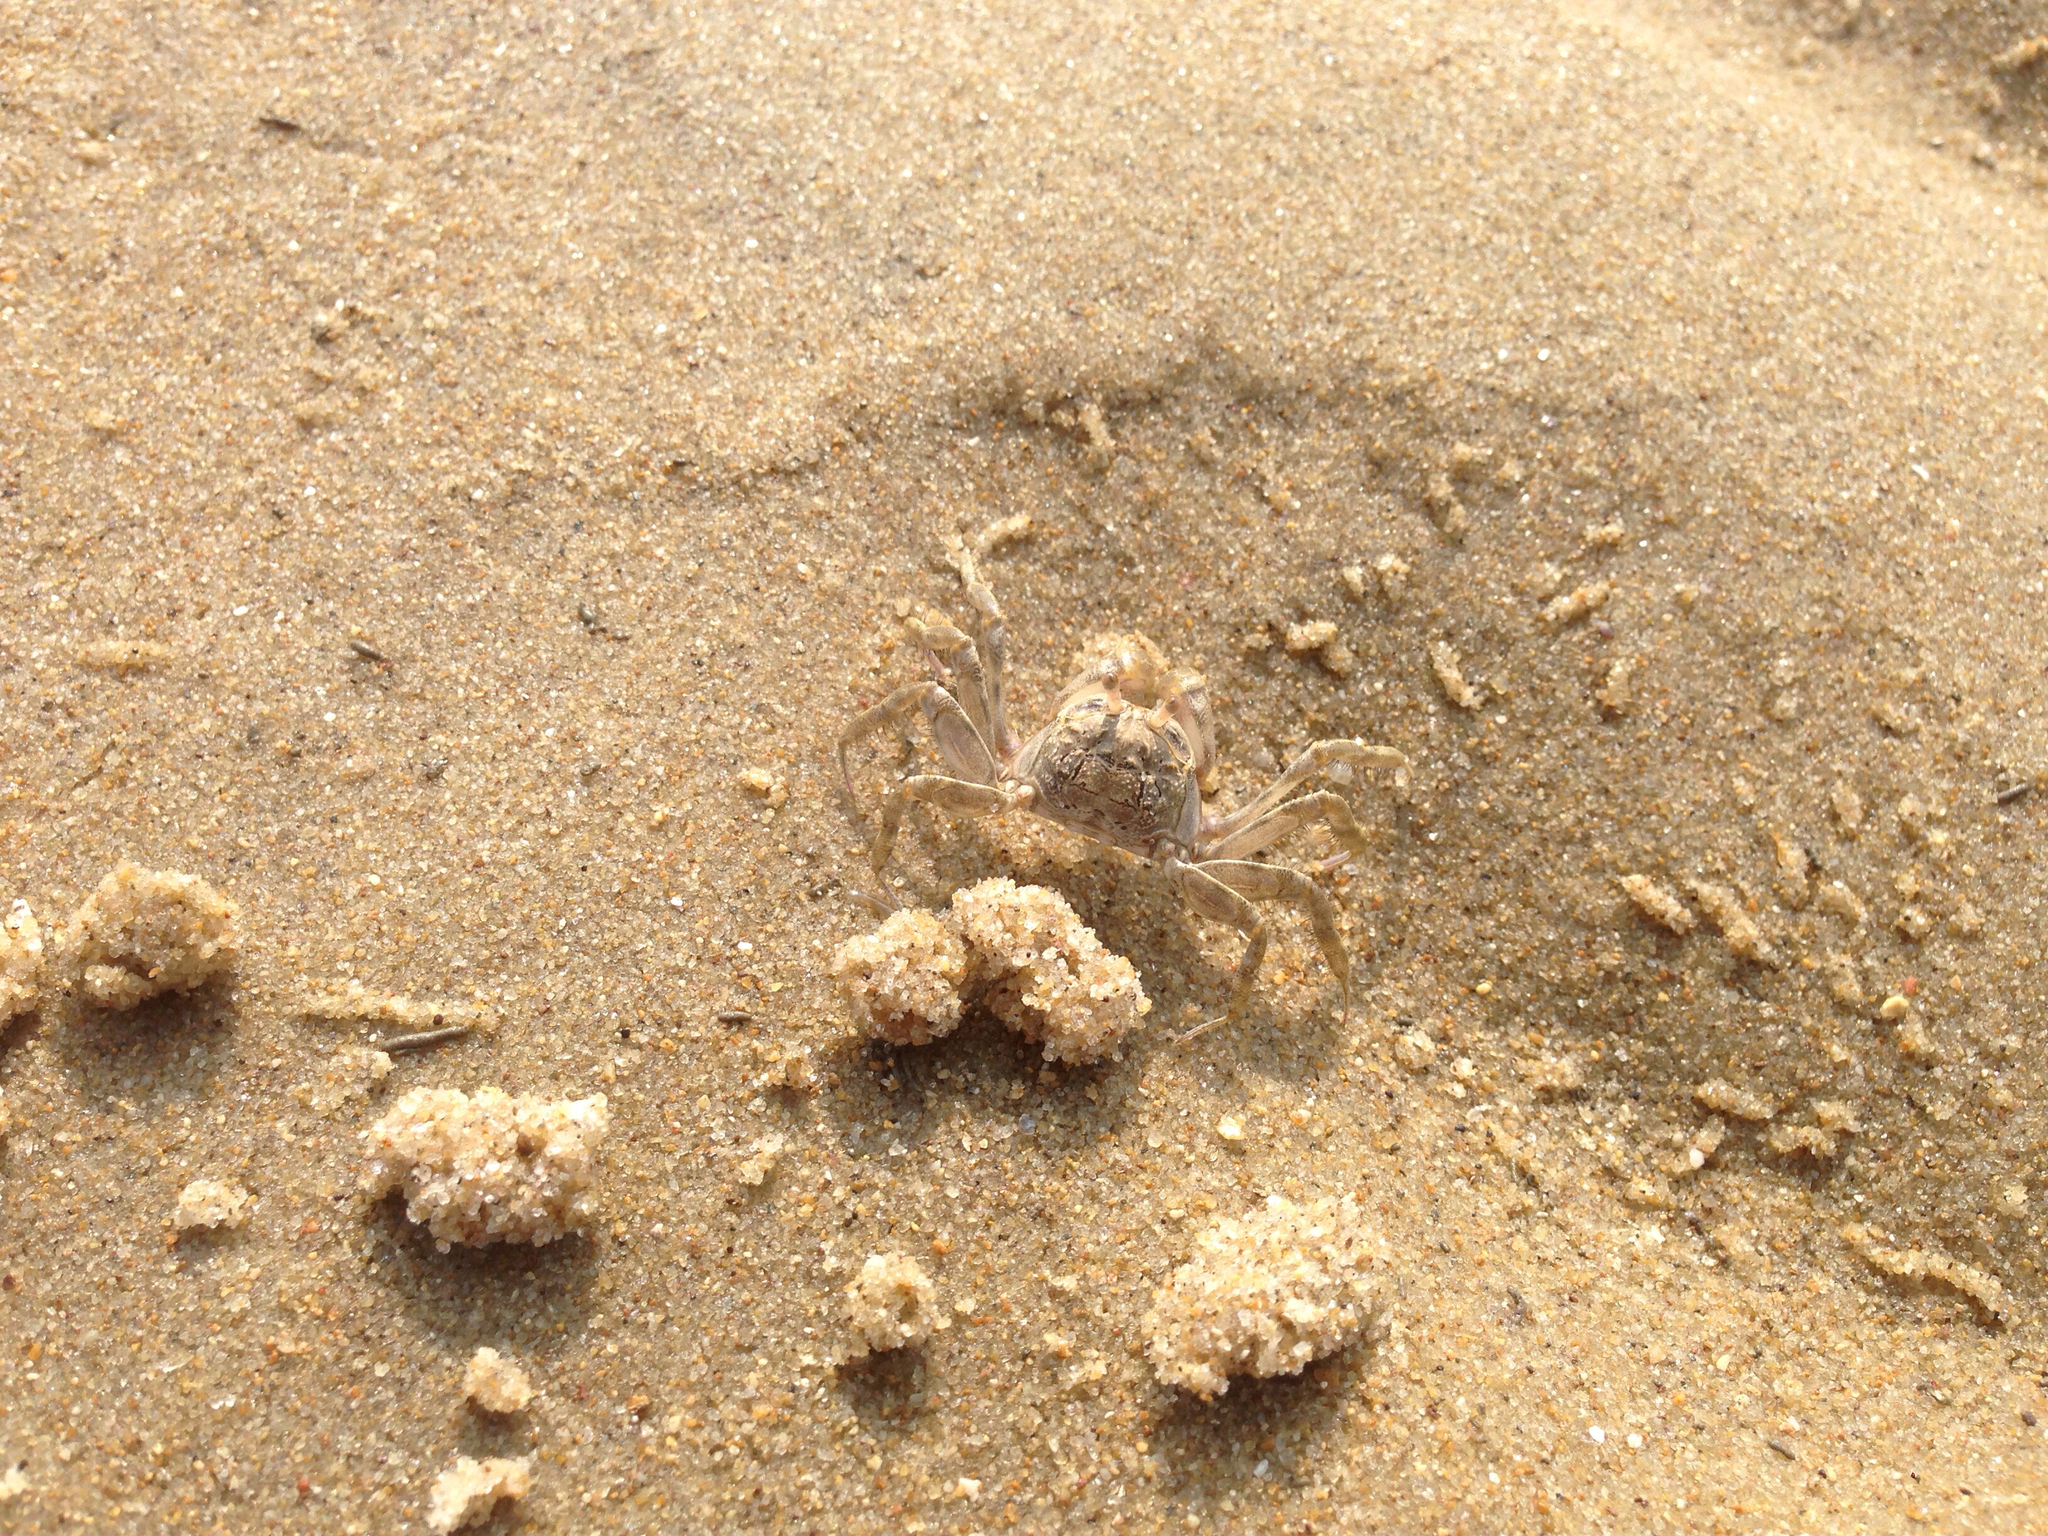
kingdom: Animalia
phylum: Arthropoda
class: Malacostraca
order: Decapoda
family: Dotillidae
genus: Scopimera
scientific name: Scopimera globosa
